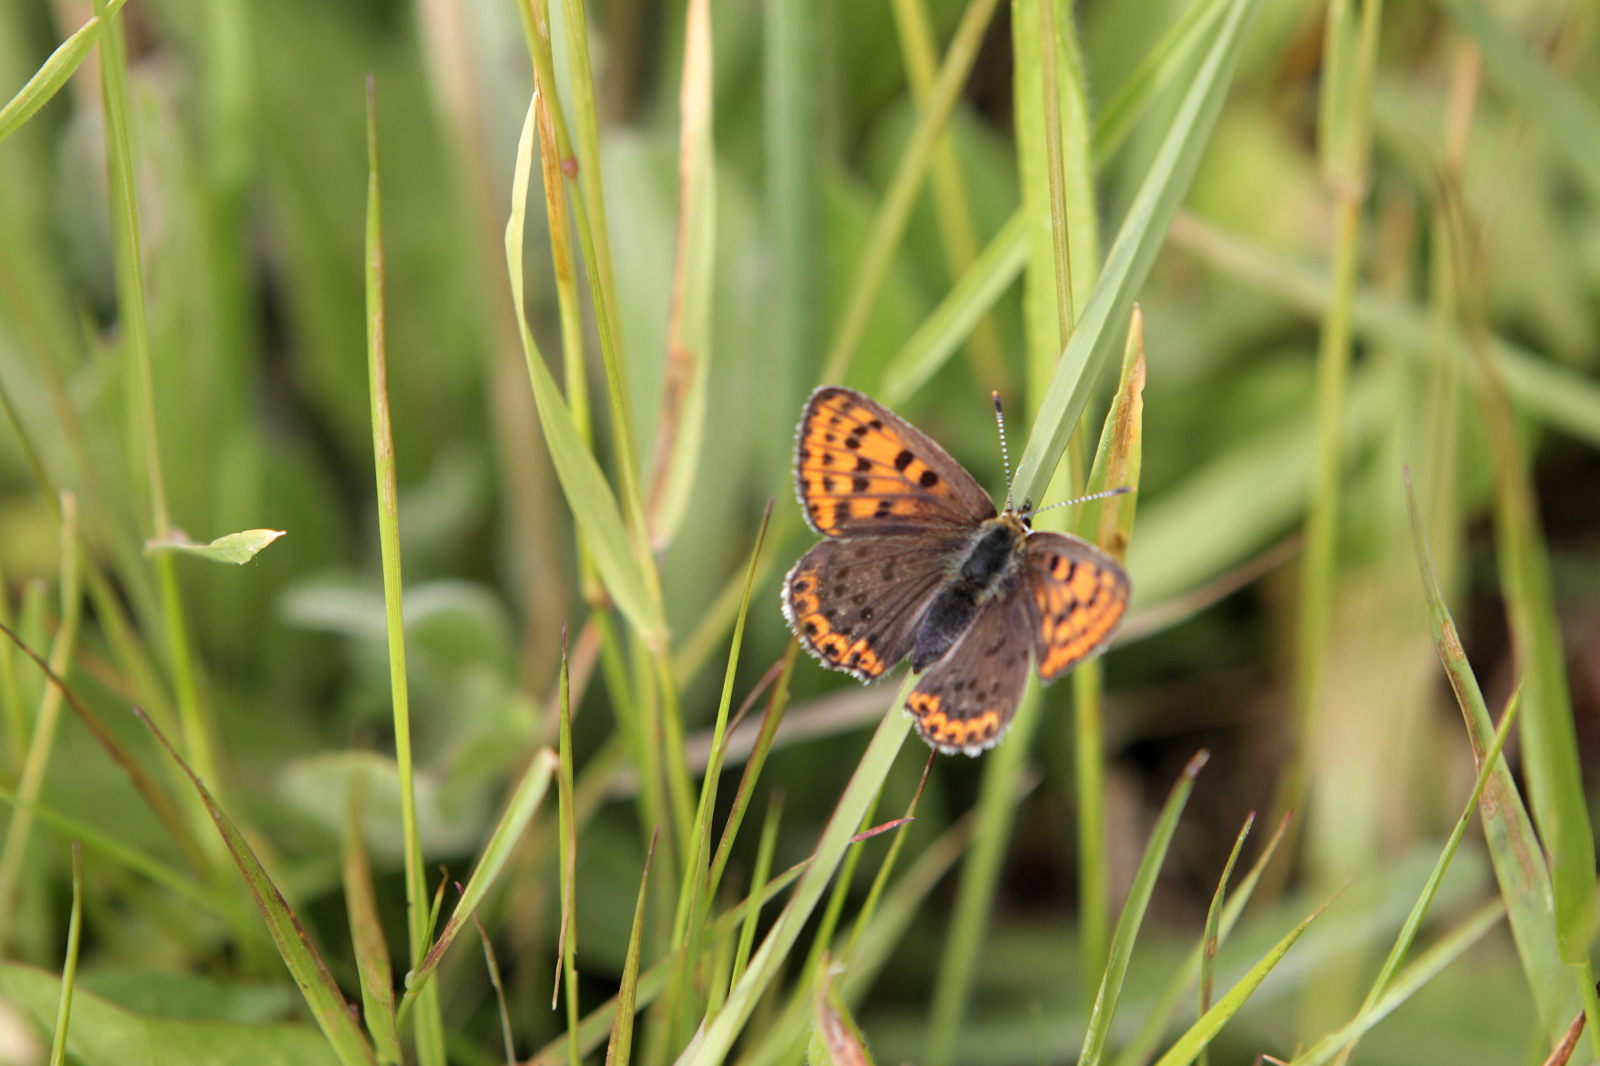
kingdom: Animalia
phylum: Arthropoda
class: Insecta
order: Lepidoptera
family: Lycaenidae
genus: Loweia
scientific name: Loweia tityrus
